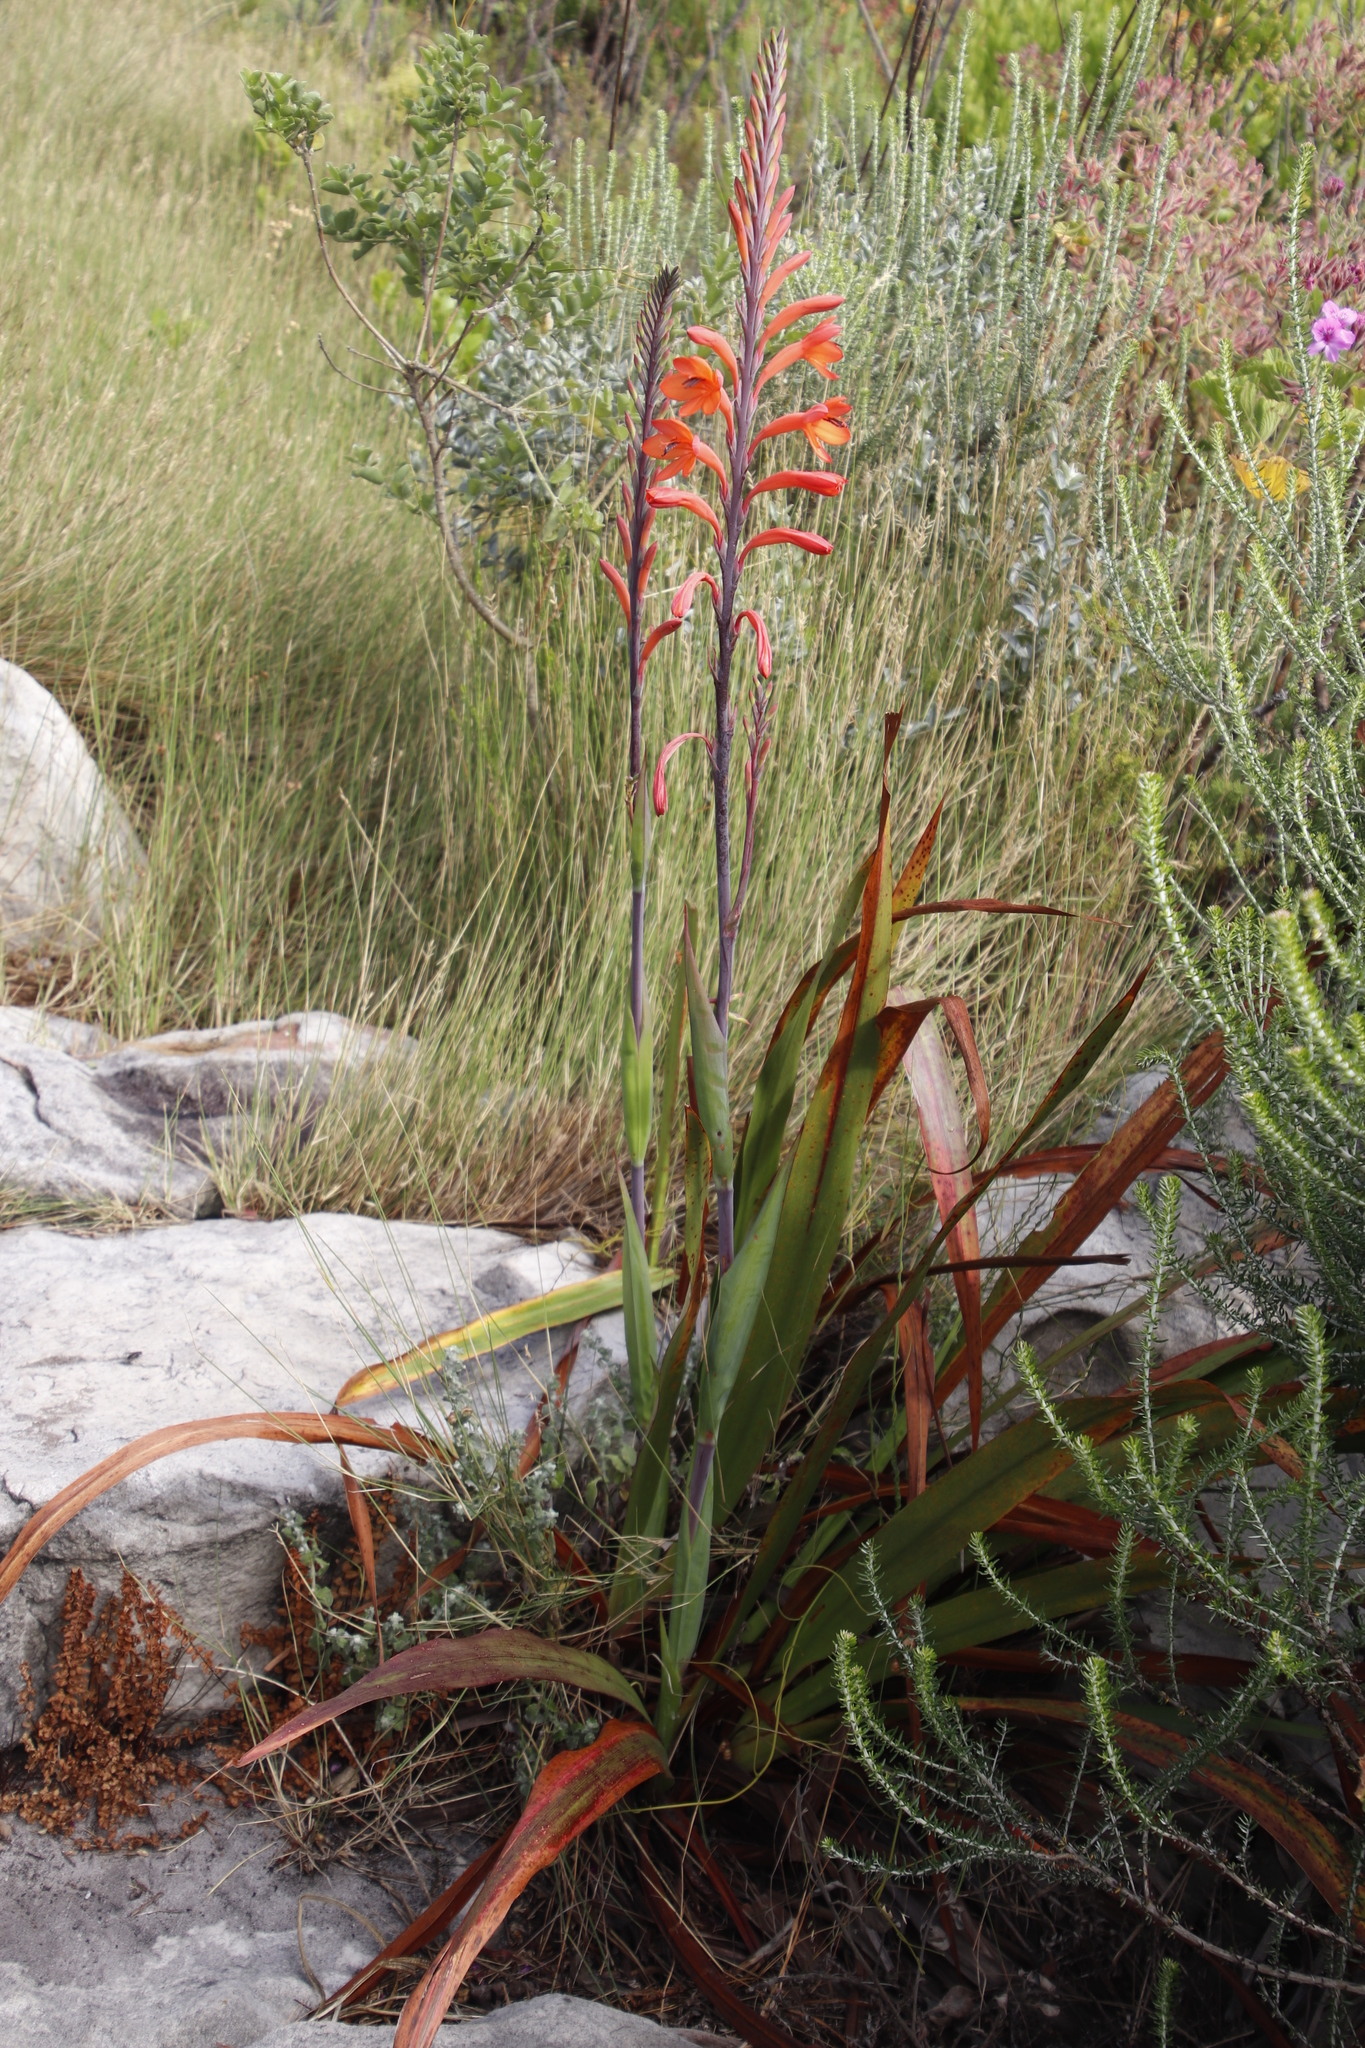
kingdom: Plantae
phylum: Tracheophyta
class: Liliopsida
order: Asparagales
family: Iridaceae
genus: Watsonia
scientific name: Watsonia tabularis
